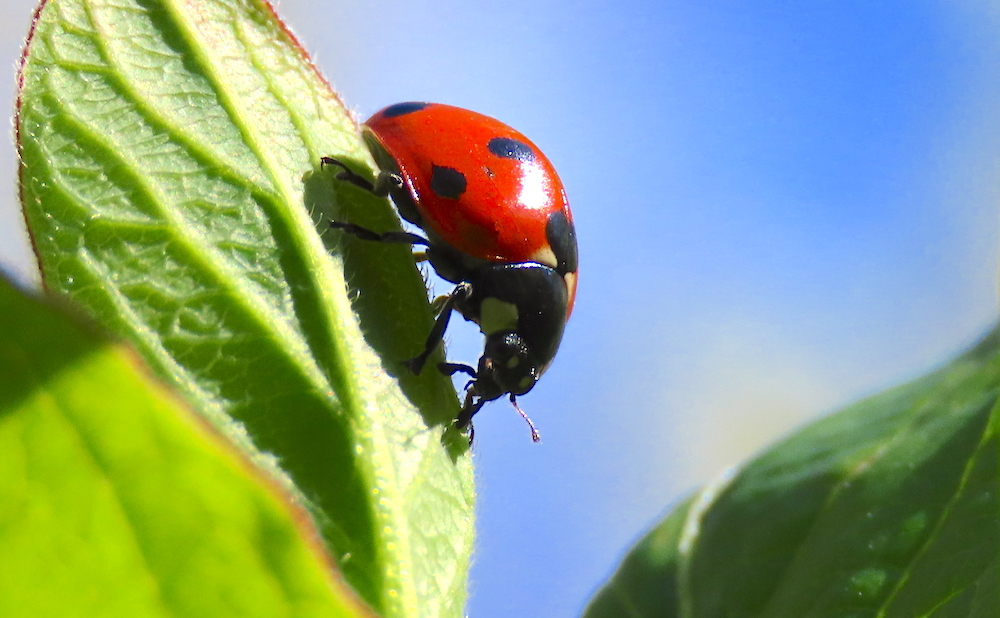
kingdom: Animalia
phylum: Arthropoda
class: Insecta
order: Coleoptera
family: Coccinellidae
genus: Coccinella
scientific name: Coccinella septempunctata
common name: Sevenspotted lady beetle
